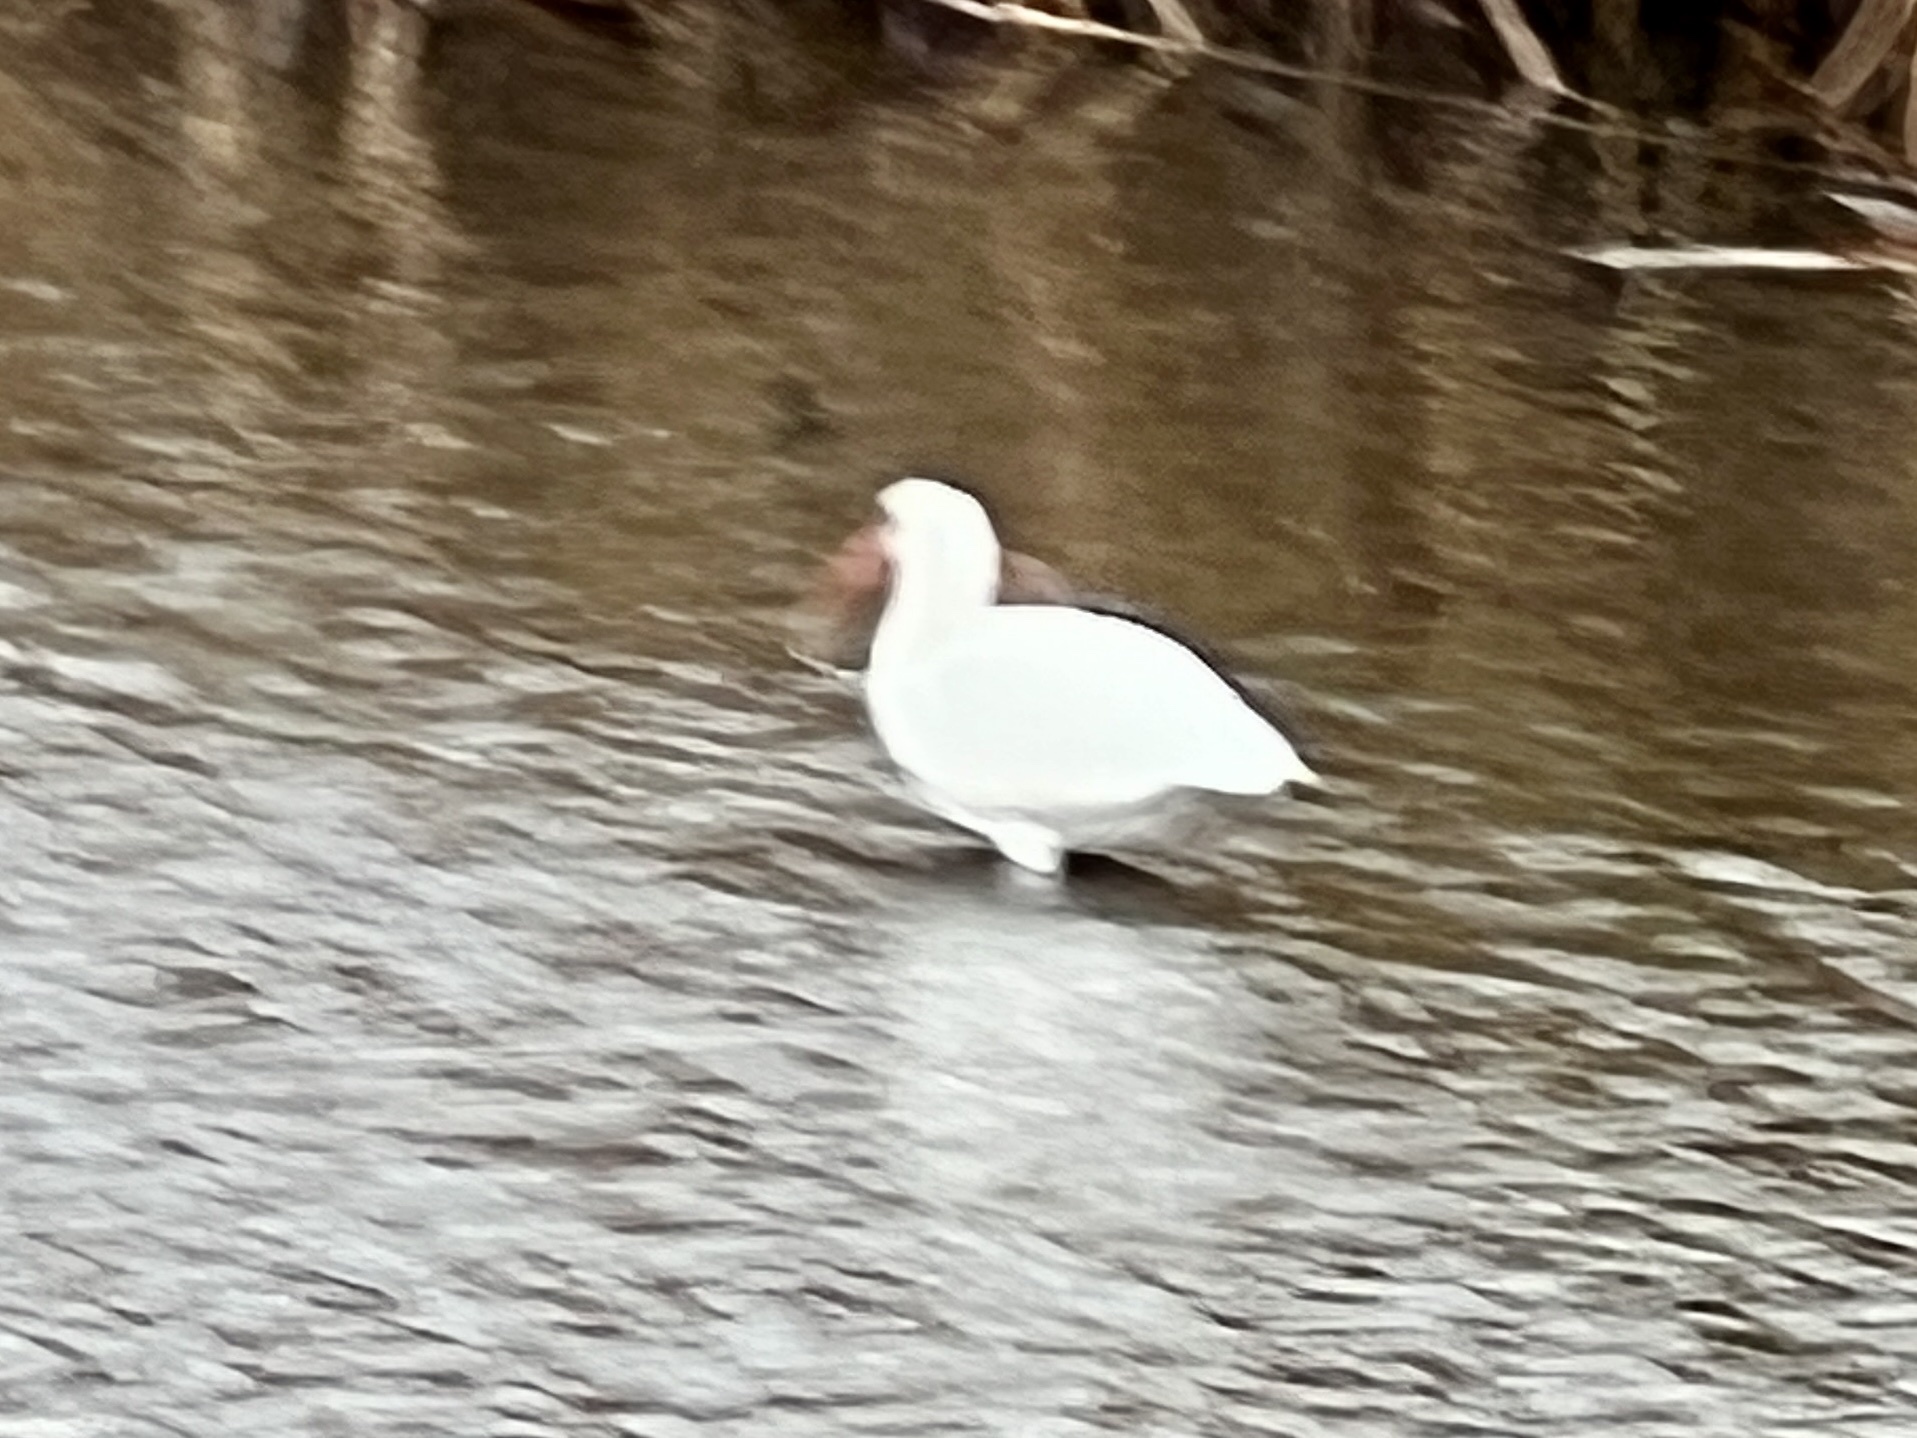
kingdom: Animalia
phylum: Chordata
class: Aves
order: Pelecaniformes
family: Threskiornithidae
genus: Eudocimus
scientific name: Eudocimus albus
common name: White ibis
